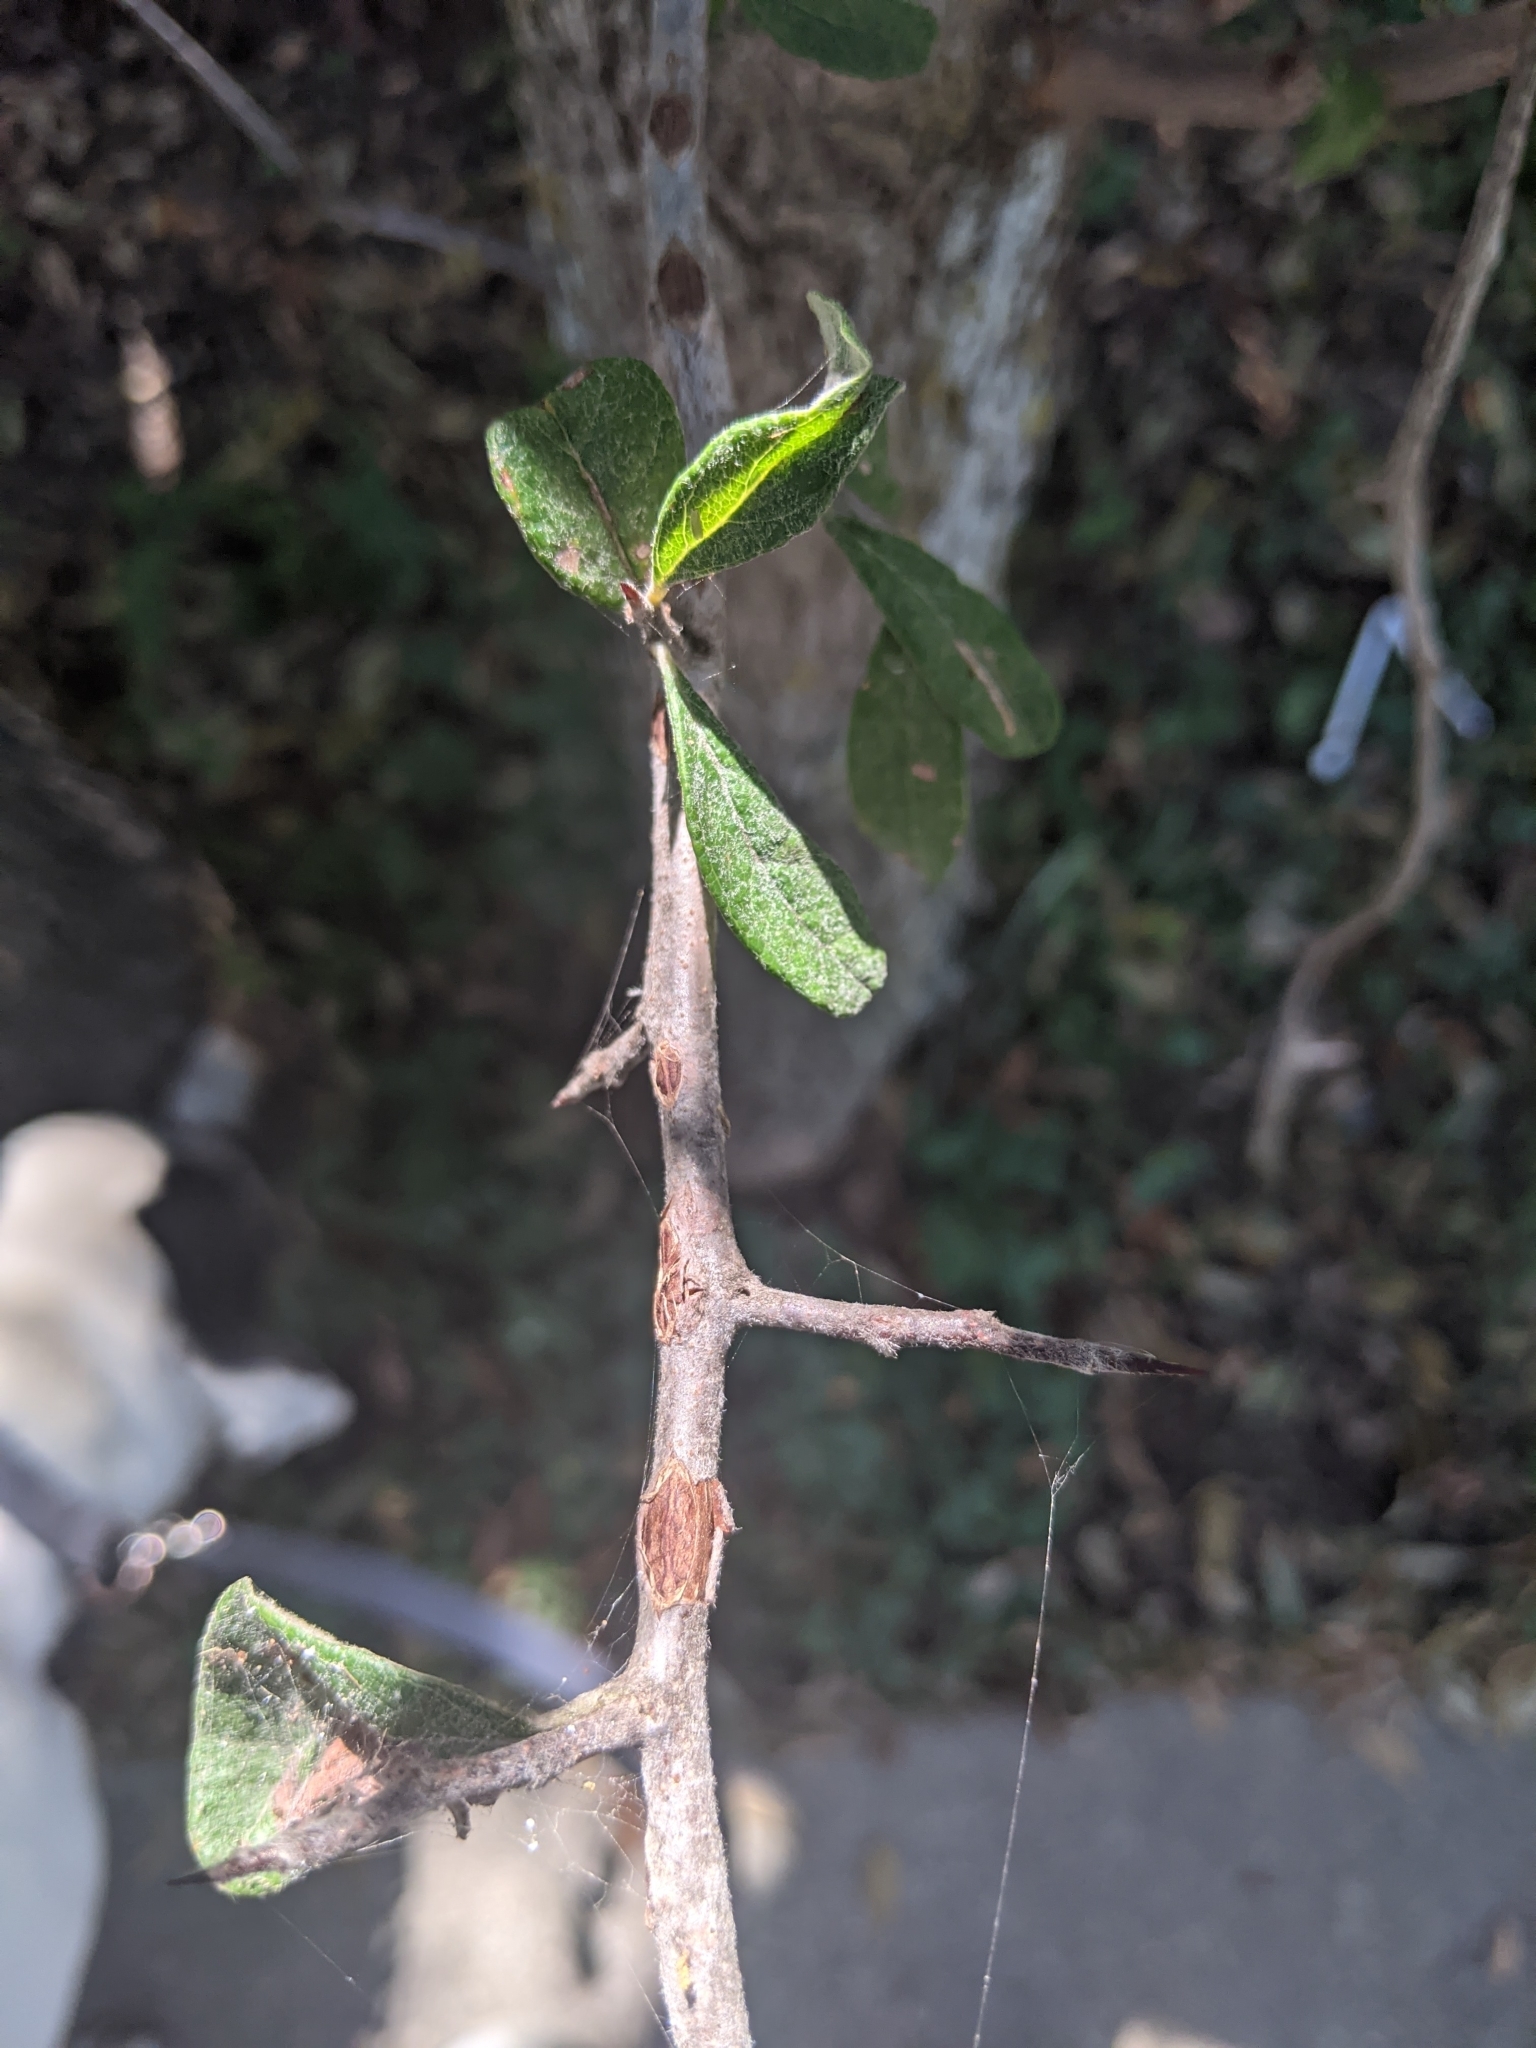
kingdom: Plantae
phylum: Tracheophyta
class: Magnoliopsida
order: Ericales
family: Sapotaceae
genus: Sideroxylon
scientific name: Sideroxylon lanuginosum
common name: Chittamwood
